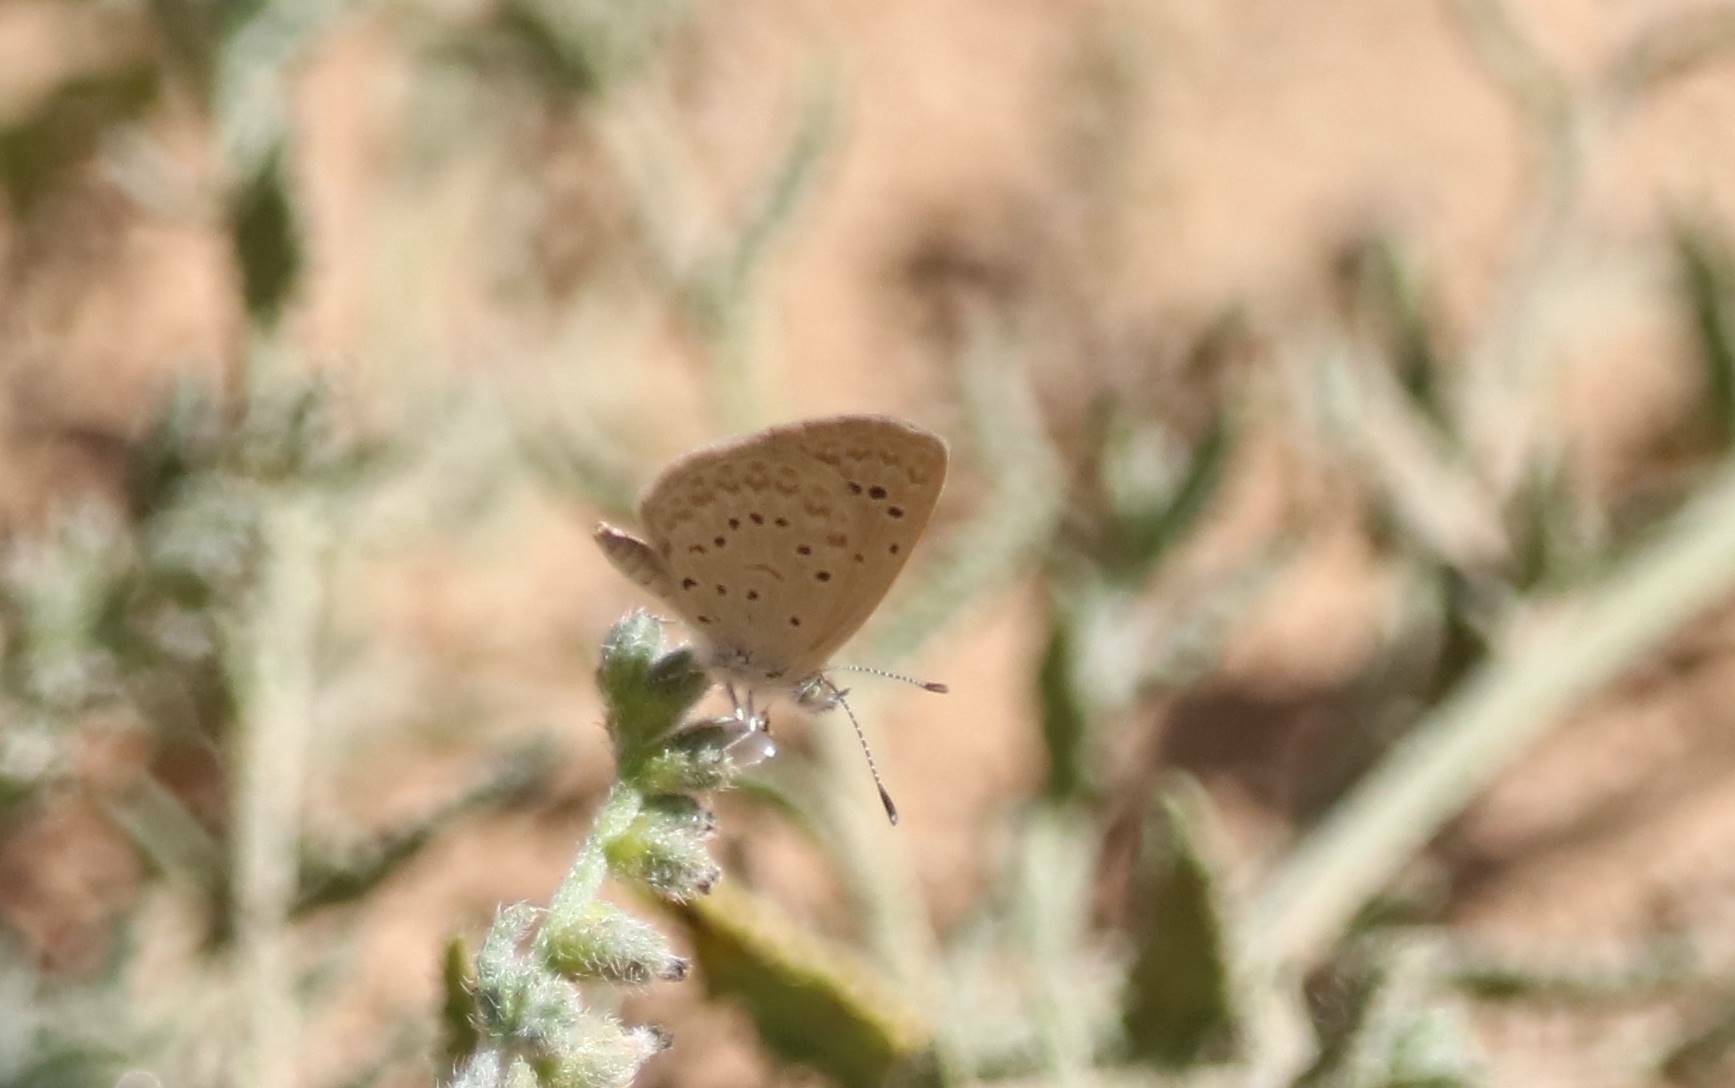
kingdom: Animalia
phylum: Arthropoda
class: Insecta
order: Lepidoptera
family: Lycaenidae
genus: Zizeeria
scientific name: Zizeeria knysna
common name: African grass blue
